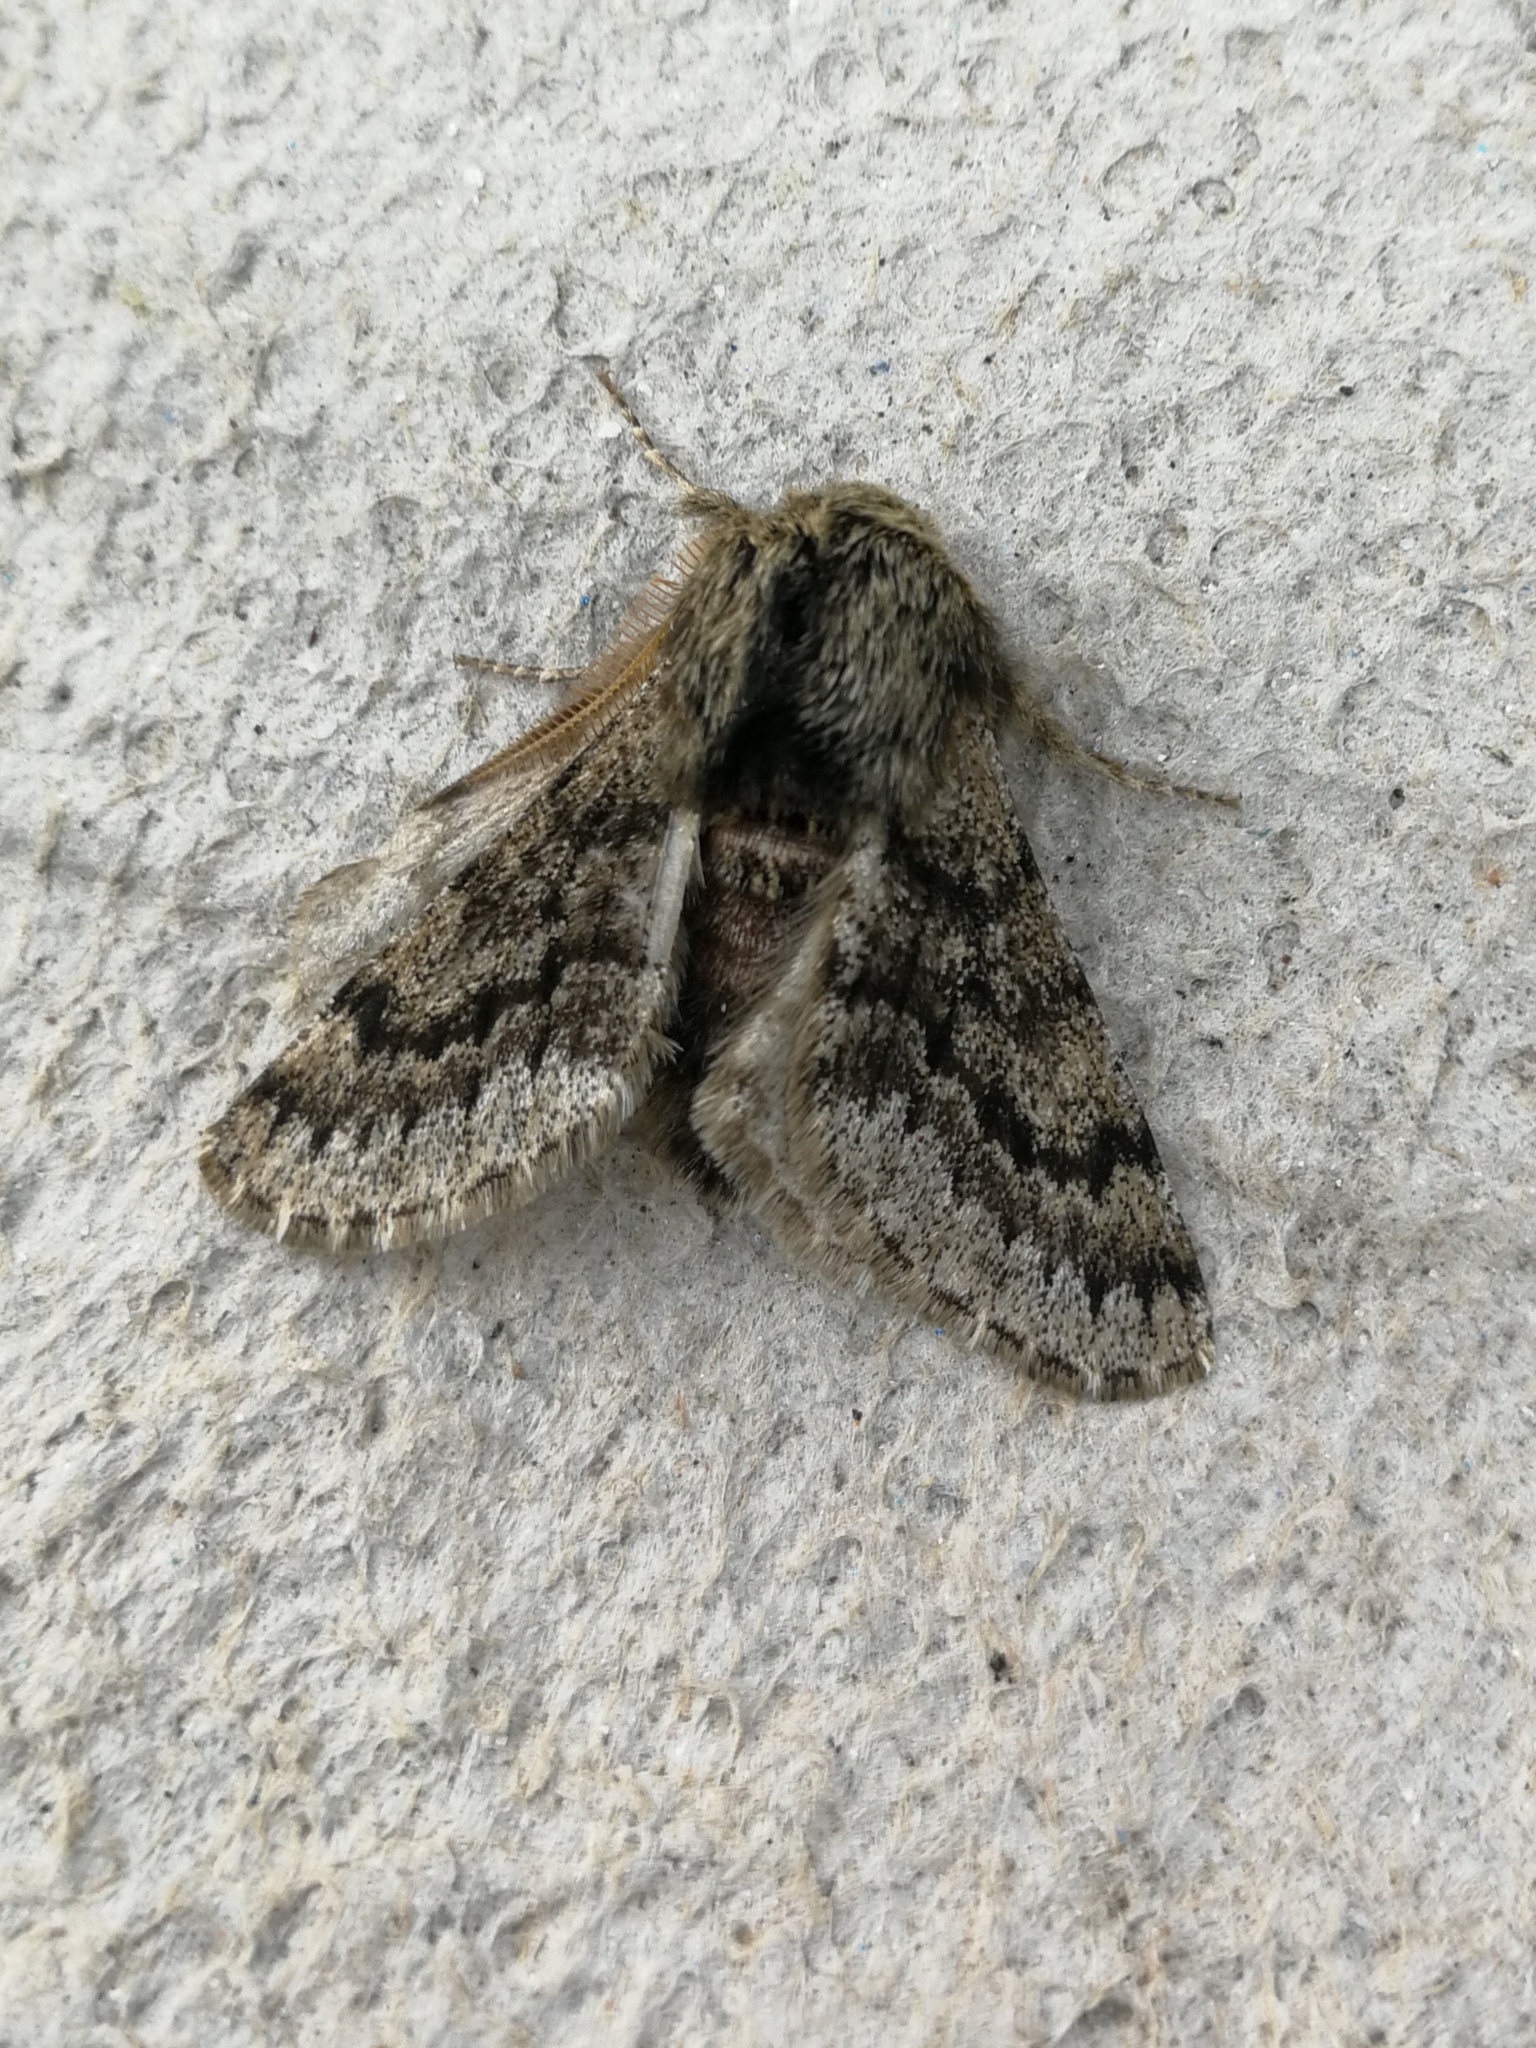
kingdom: Animalia
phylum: Arthropoda
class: Insecta
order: Lepidoptera
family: Geometridae
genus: Apocheima
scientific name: Apocheima hispidaria
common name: Small brindled beauty
